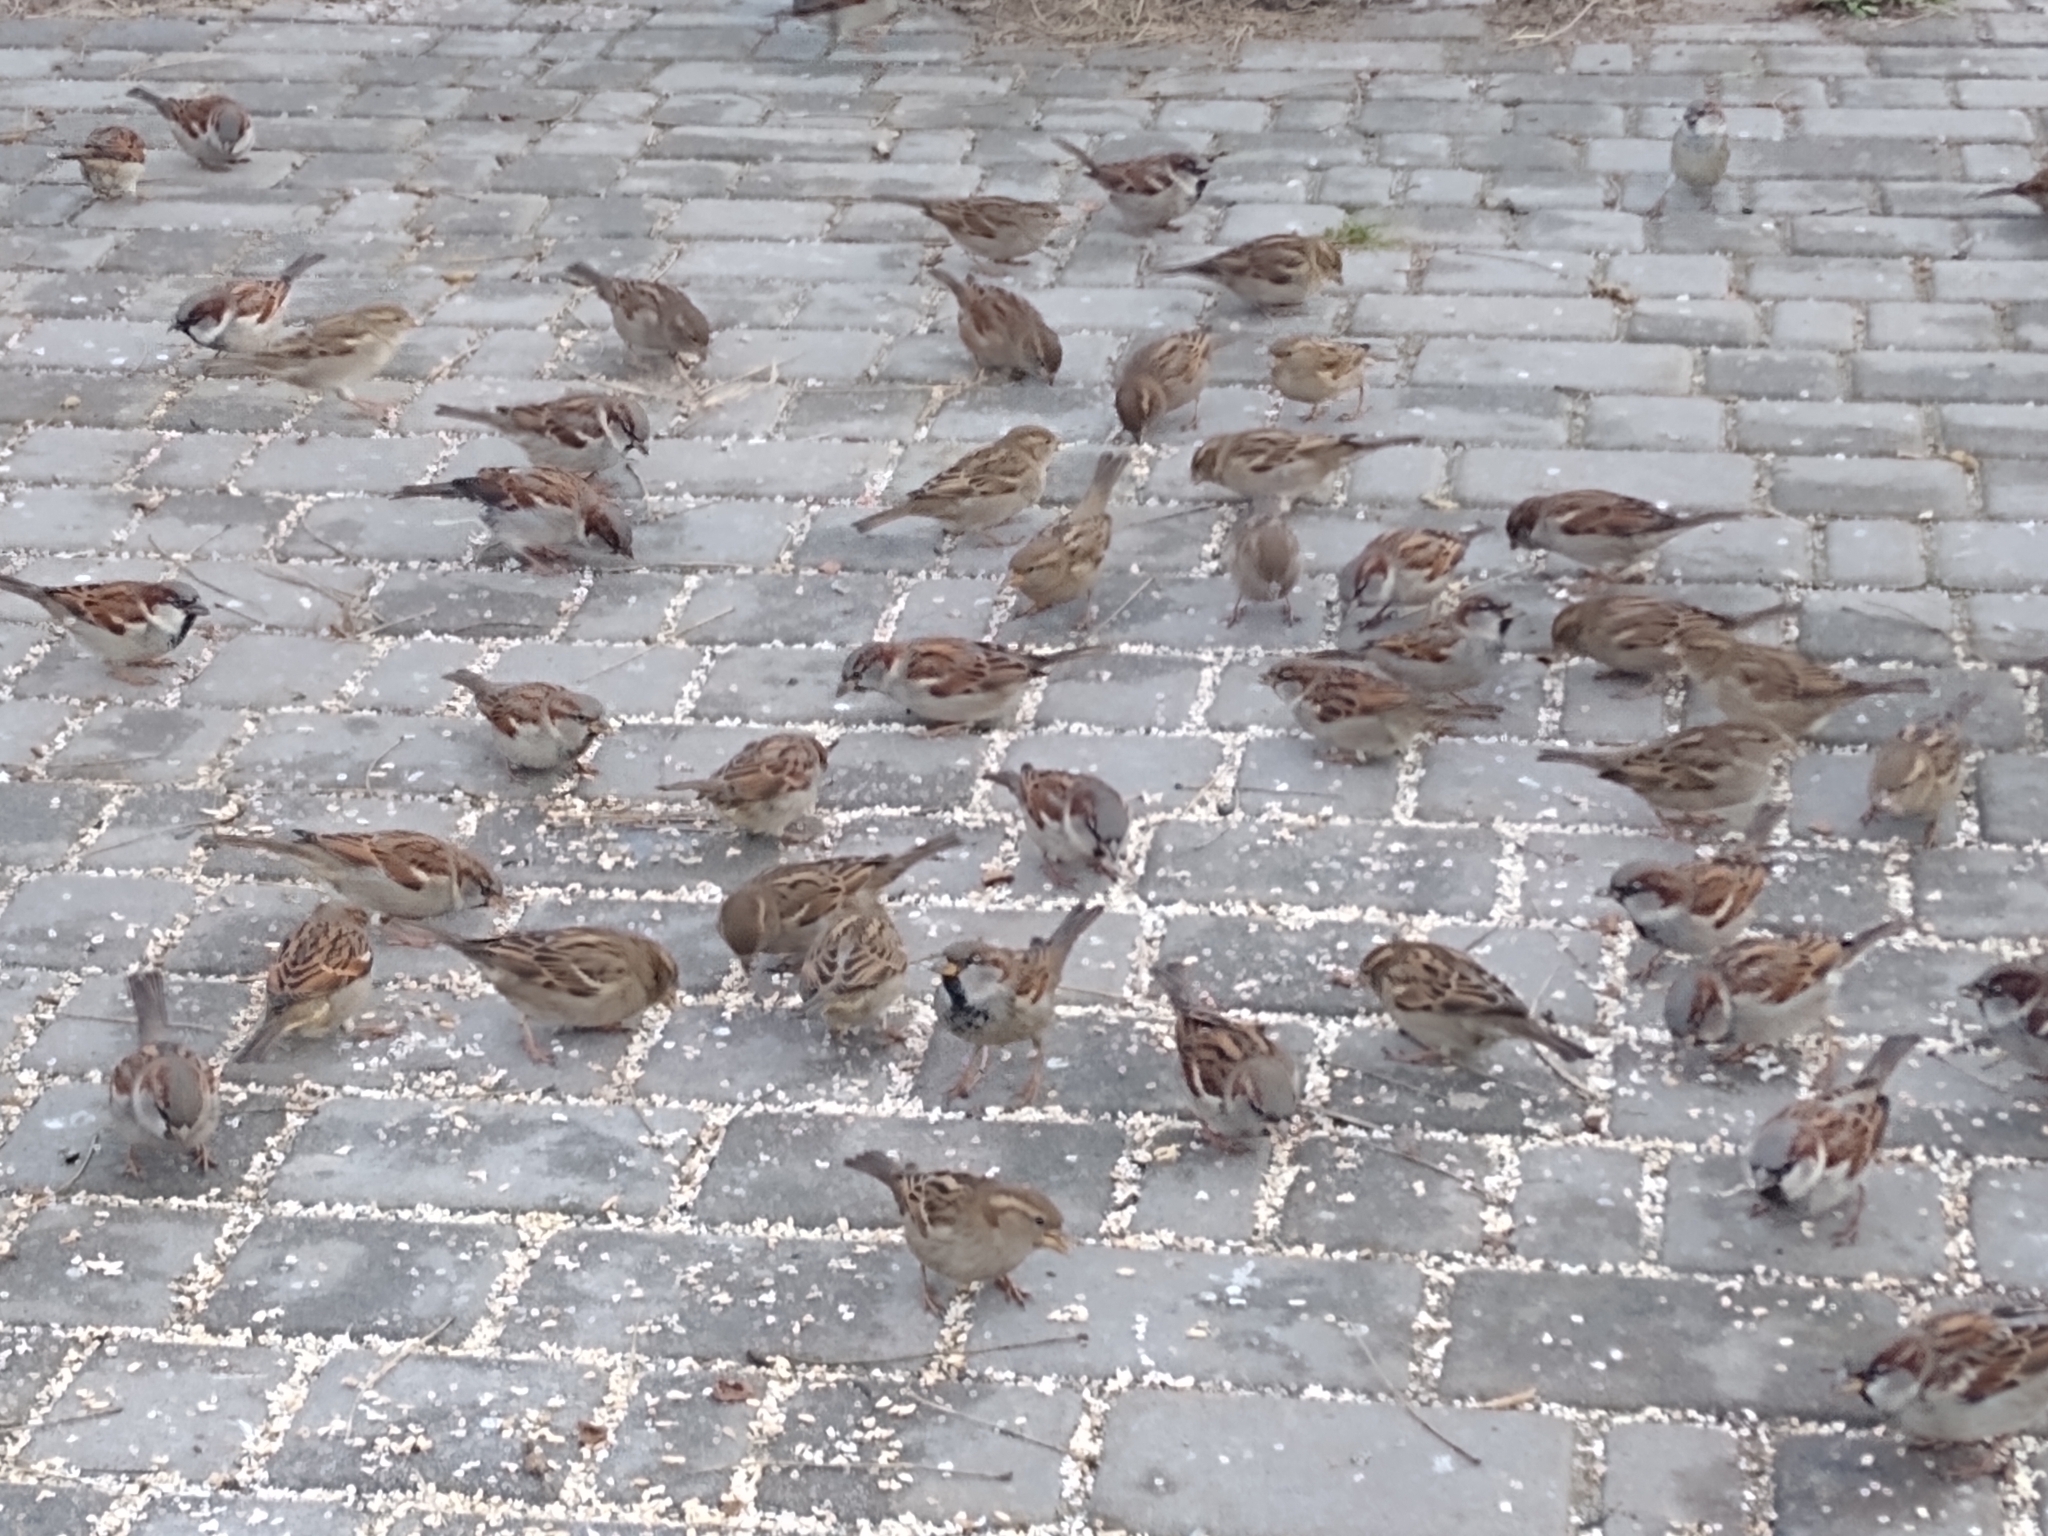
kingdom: Animalia
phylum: Chordata
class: Aves
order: Passeriformes
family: Passeridae
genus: Passer
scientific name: Passer domesticus
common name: House sparrow
